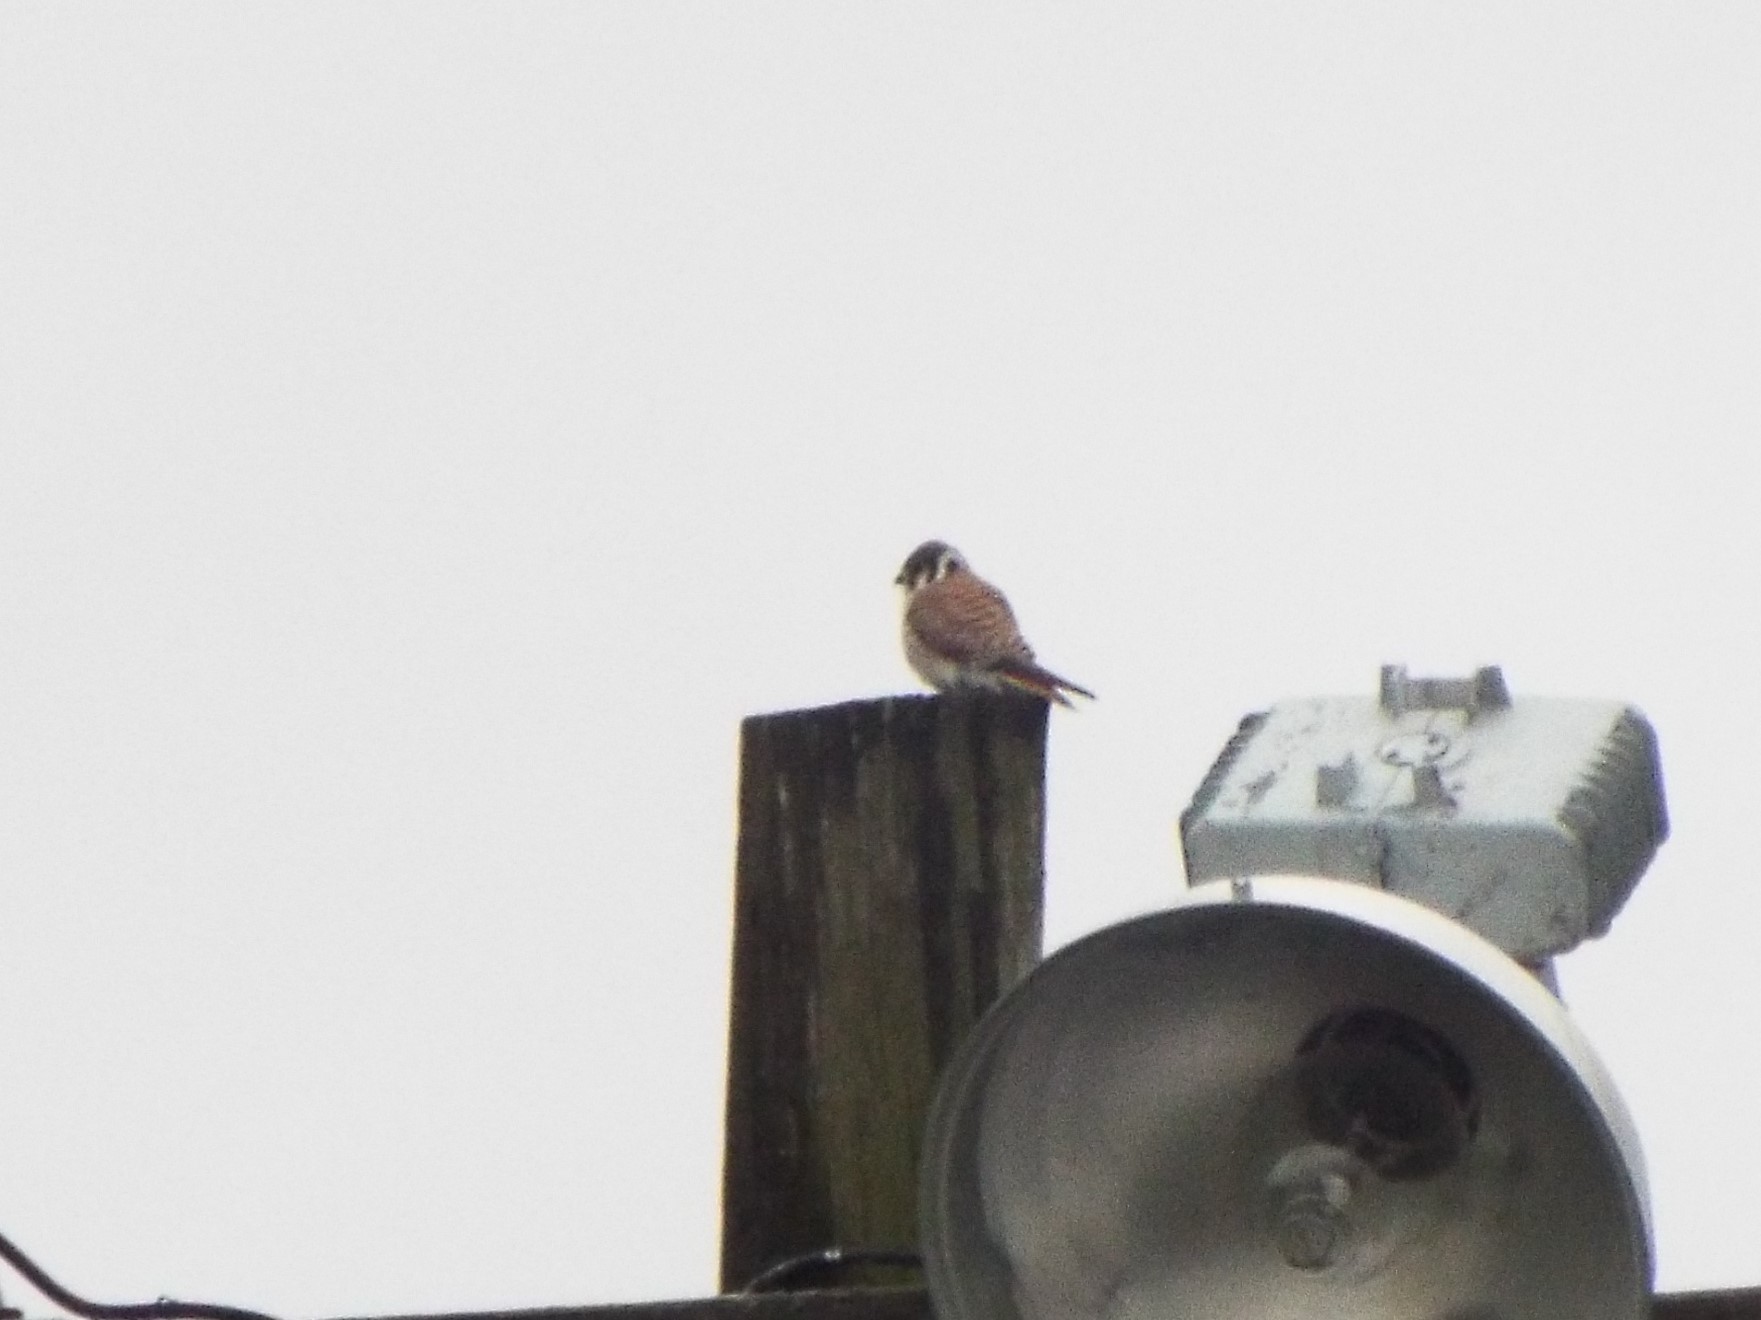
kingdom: Animalia
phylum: Chordata
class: Aves
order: Falconiformes
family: Falconidae
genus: Falco
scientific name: Falco sparverius
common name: American kestrel
